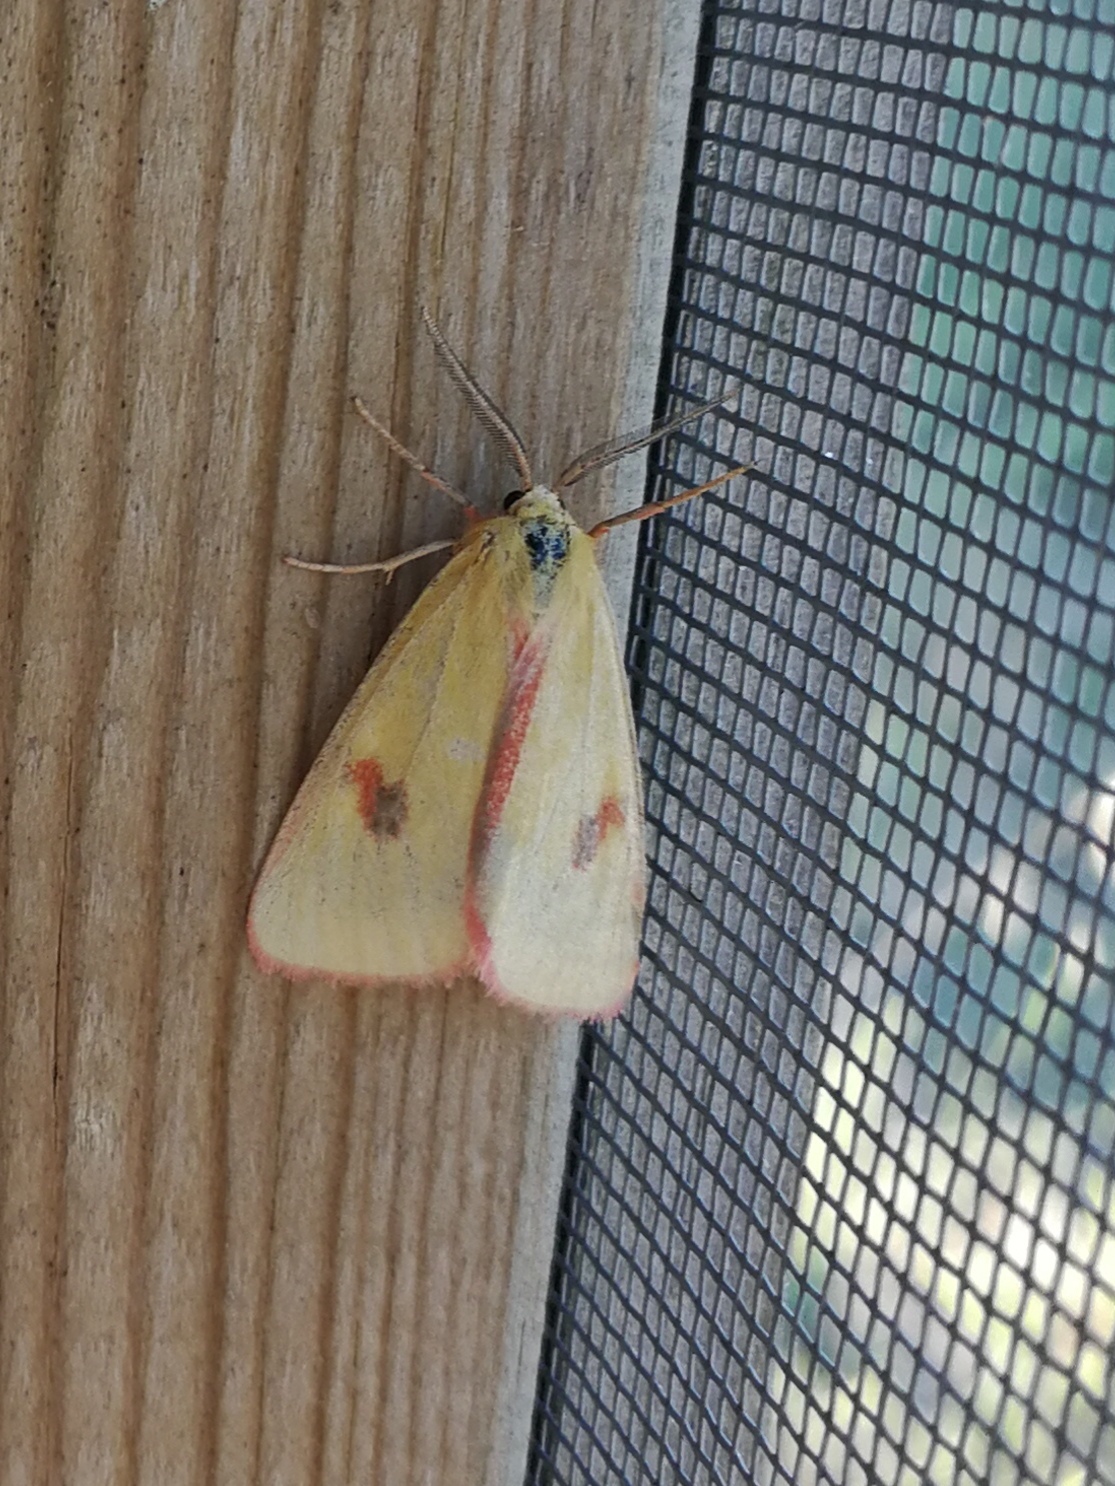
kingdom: Animalia
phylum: Arthropoda
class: Insecta
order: Lepidoptera
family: Erebidae
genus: Diacrisia
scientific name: Diacrisia sannio
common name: Clouded buff
